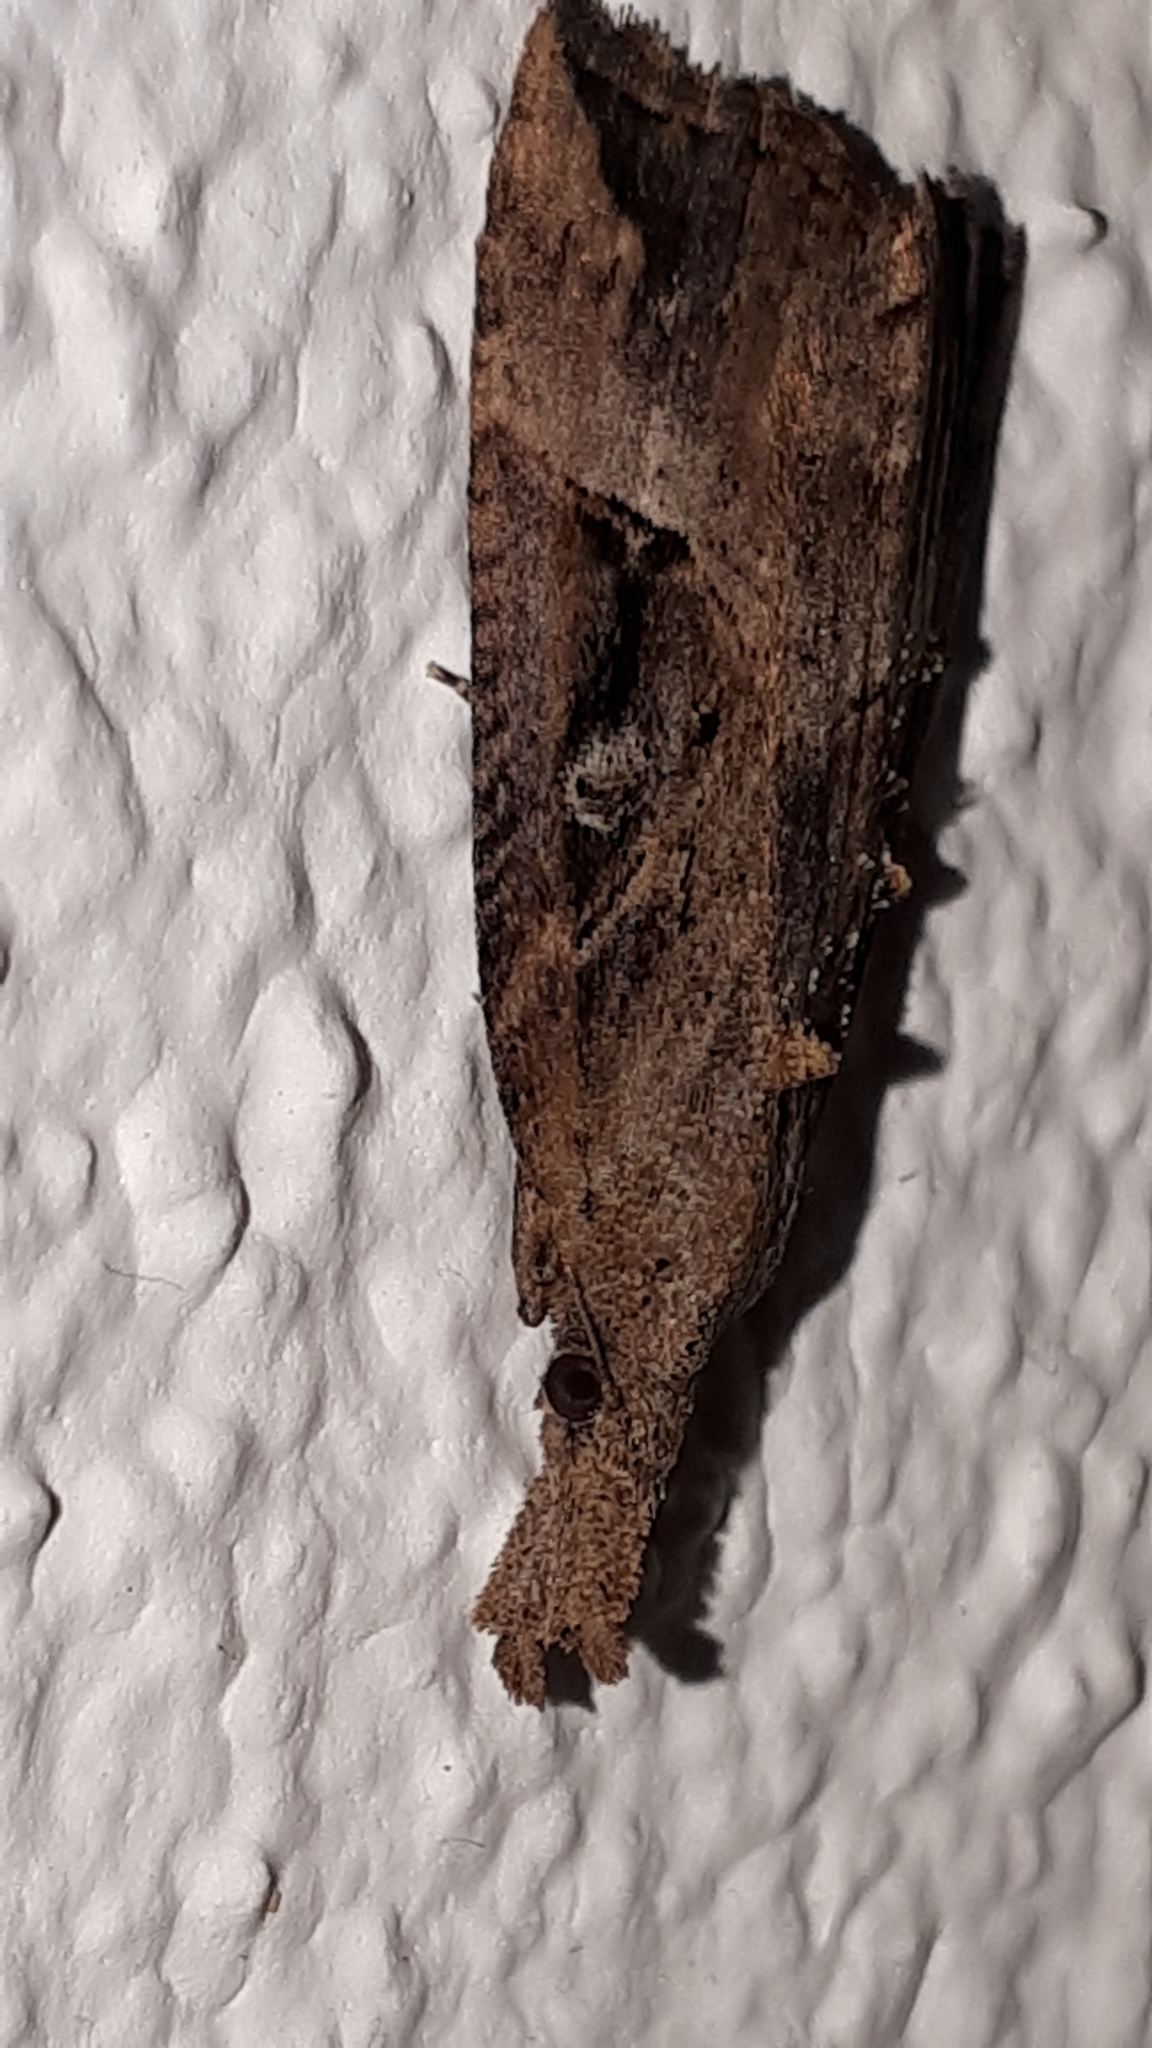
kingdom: Animalia
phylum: Arthropoda
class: Insecta
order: Lepidoptera
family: Erebidae
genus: Hypena
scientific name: Hypena rostralis
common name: Buttoned snout
